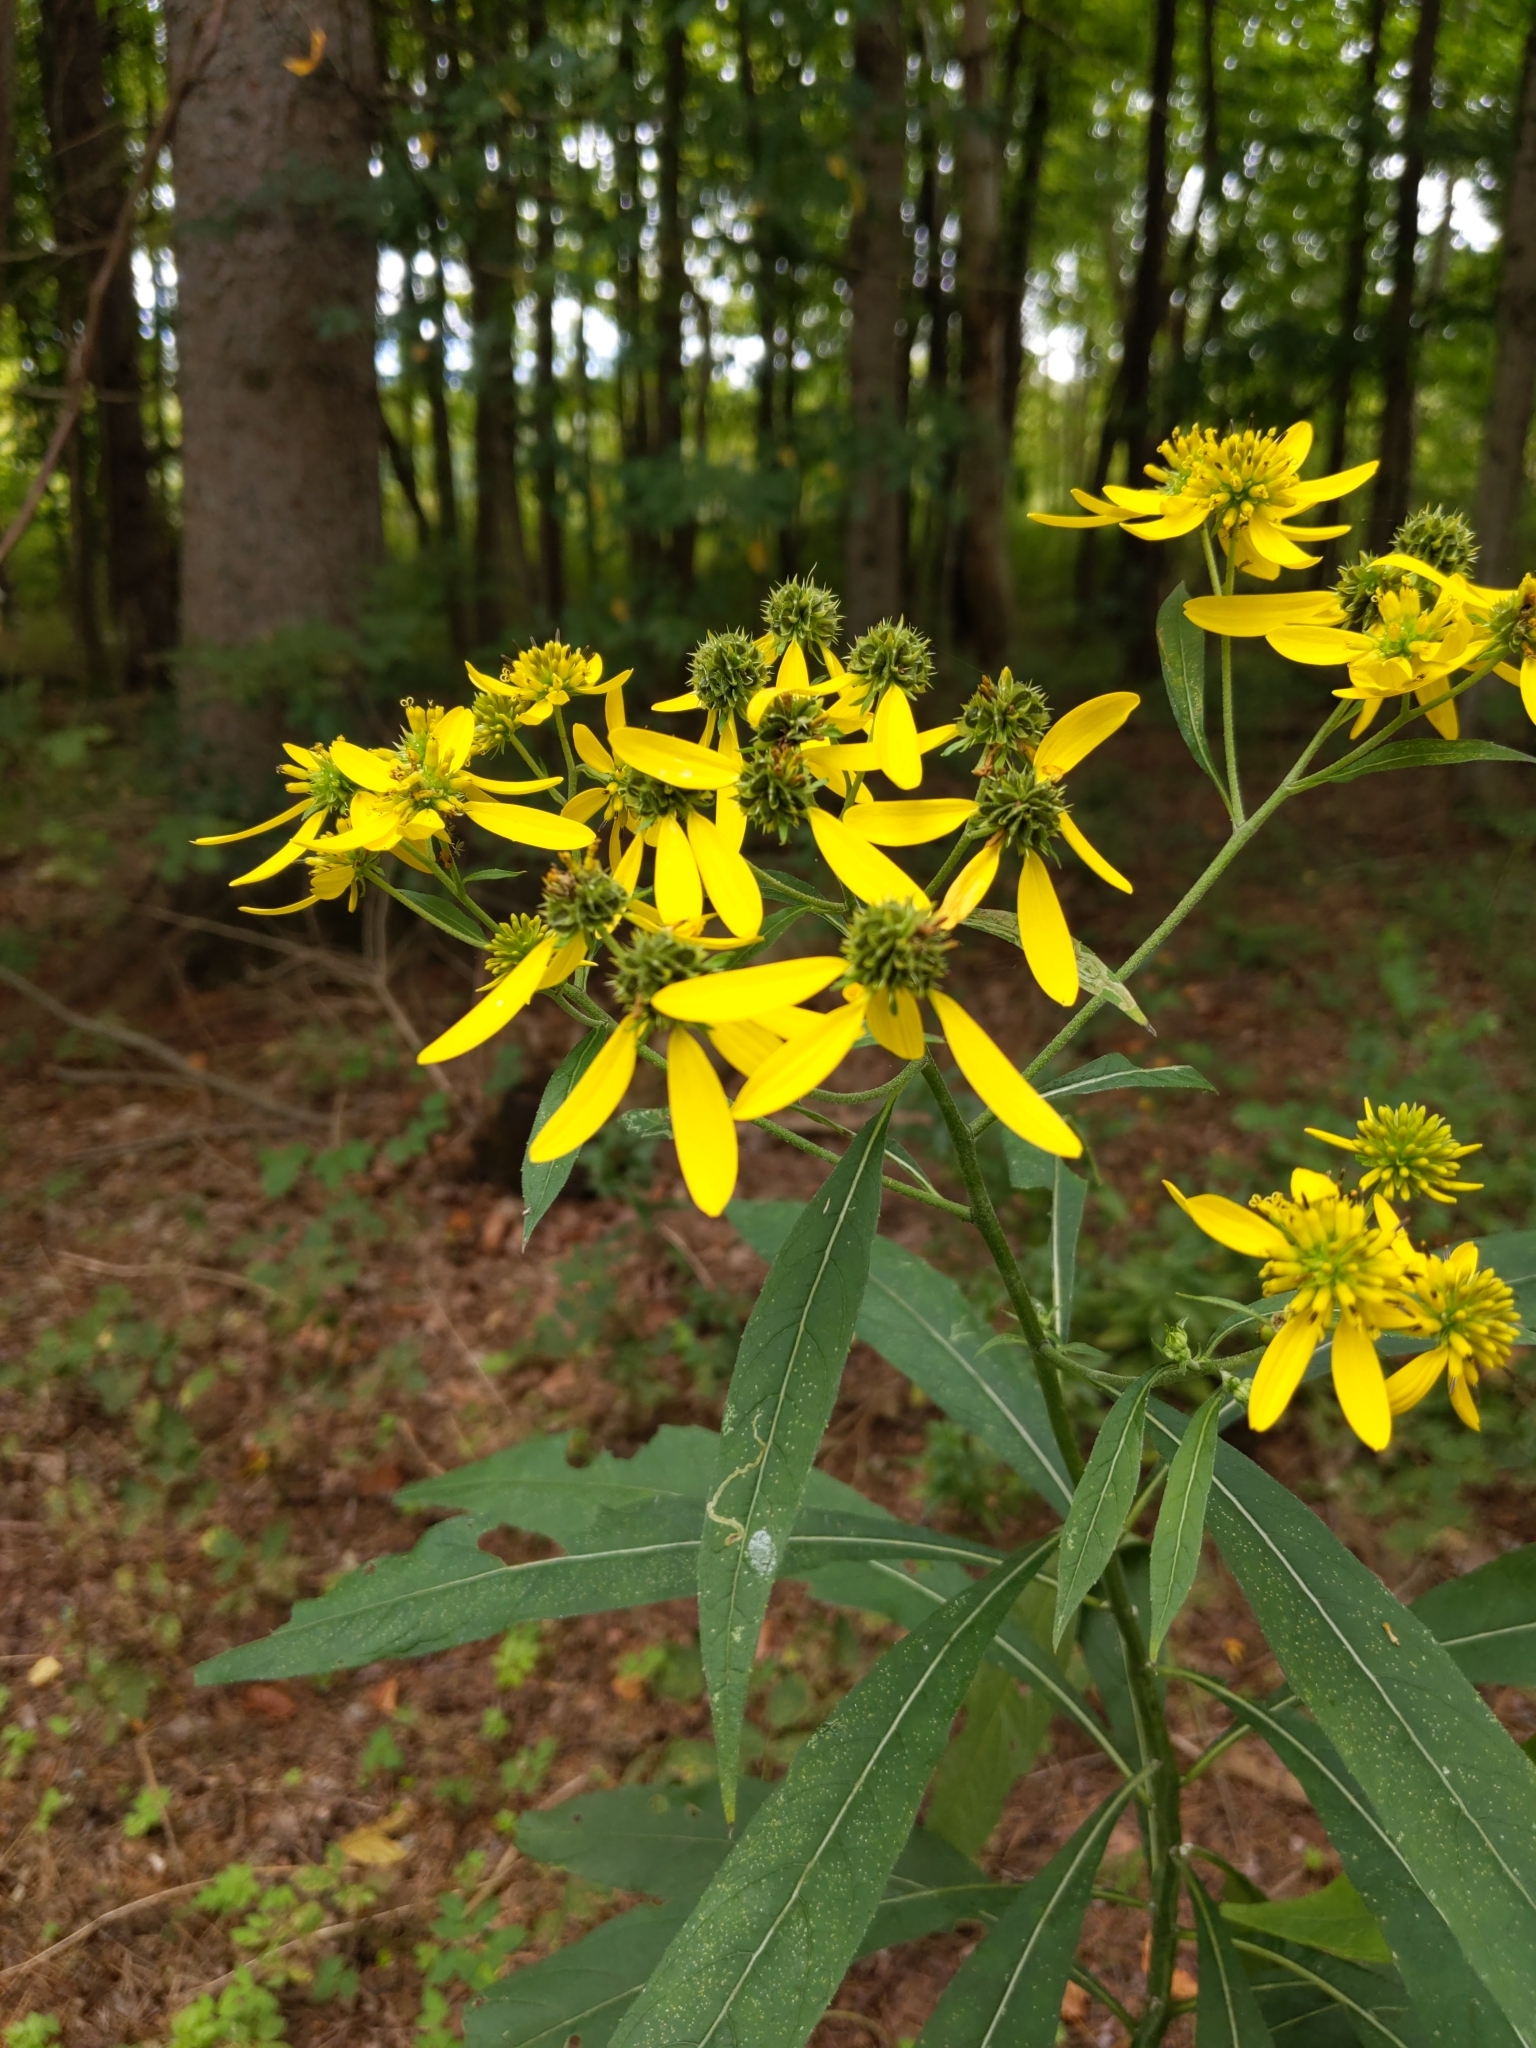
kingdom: Plantae
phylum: Tracheophyta
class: Magnoliopsida
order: Asterales
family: Asteraceae
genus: Verbesina
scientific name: Verbesina alternifolia
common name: Wingstem
